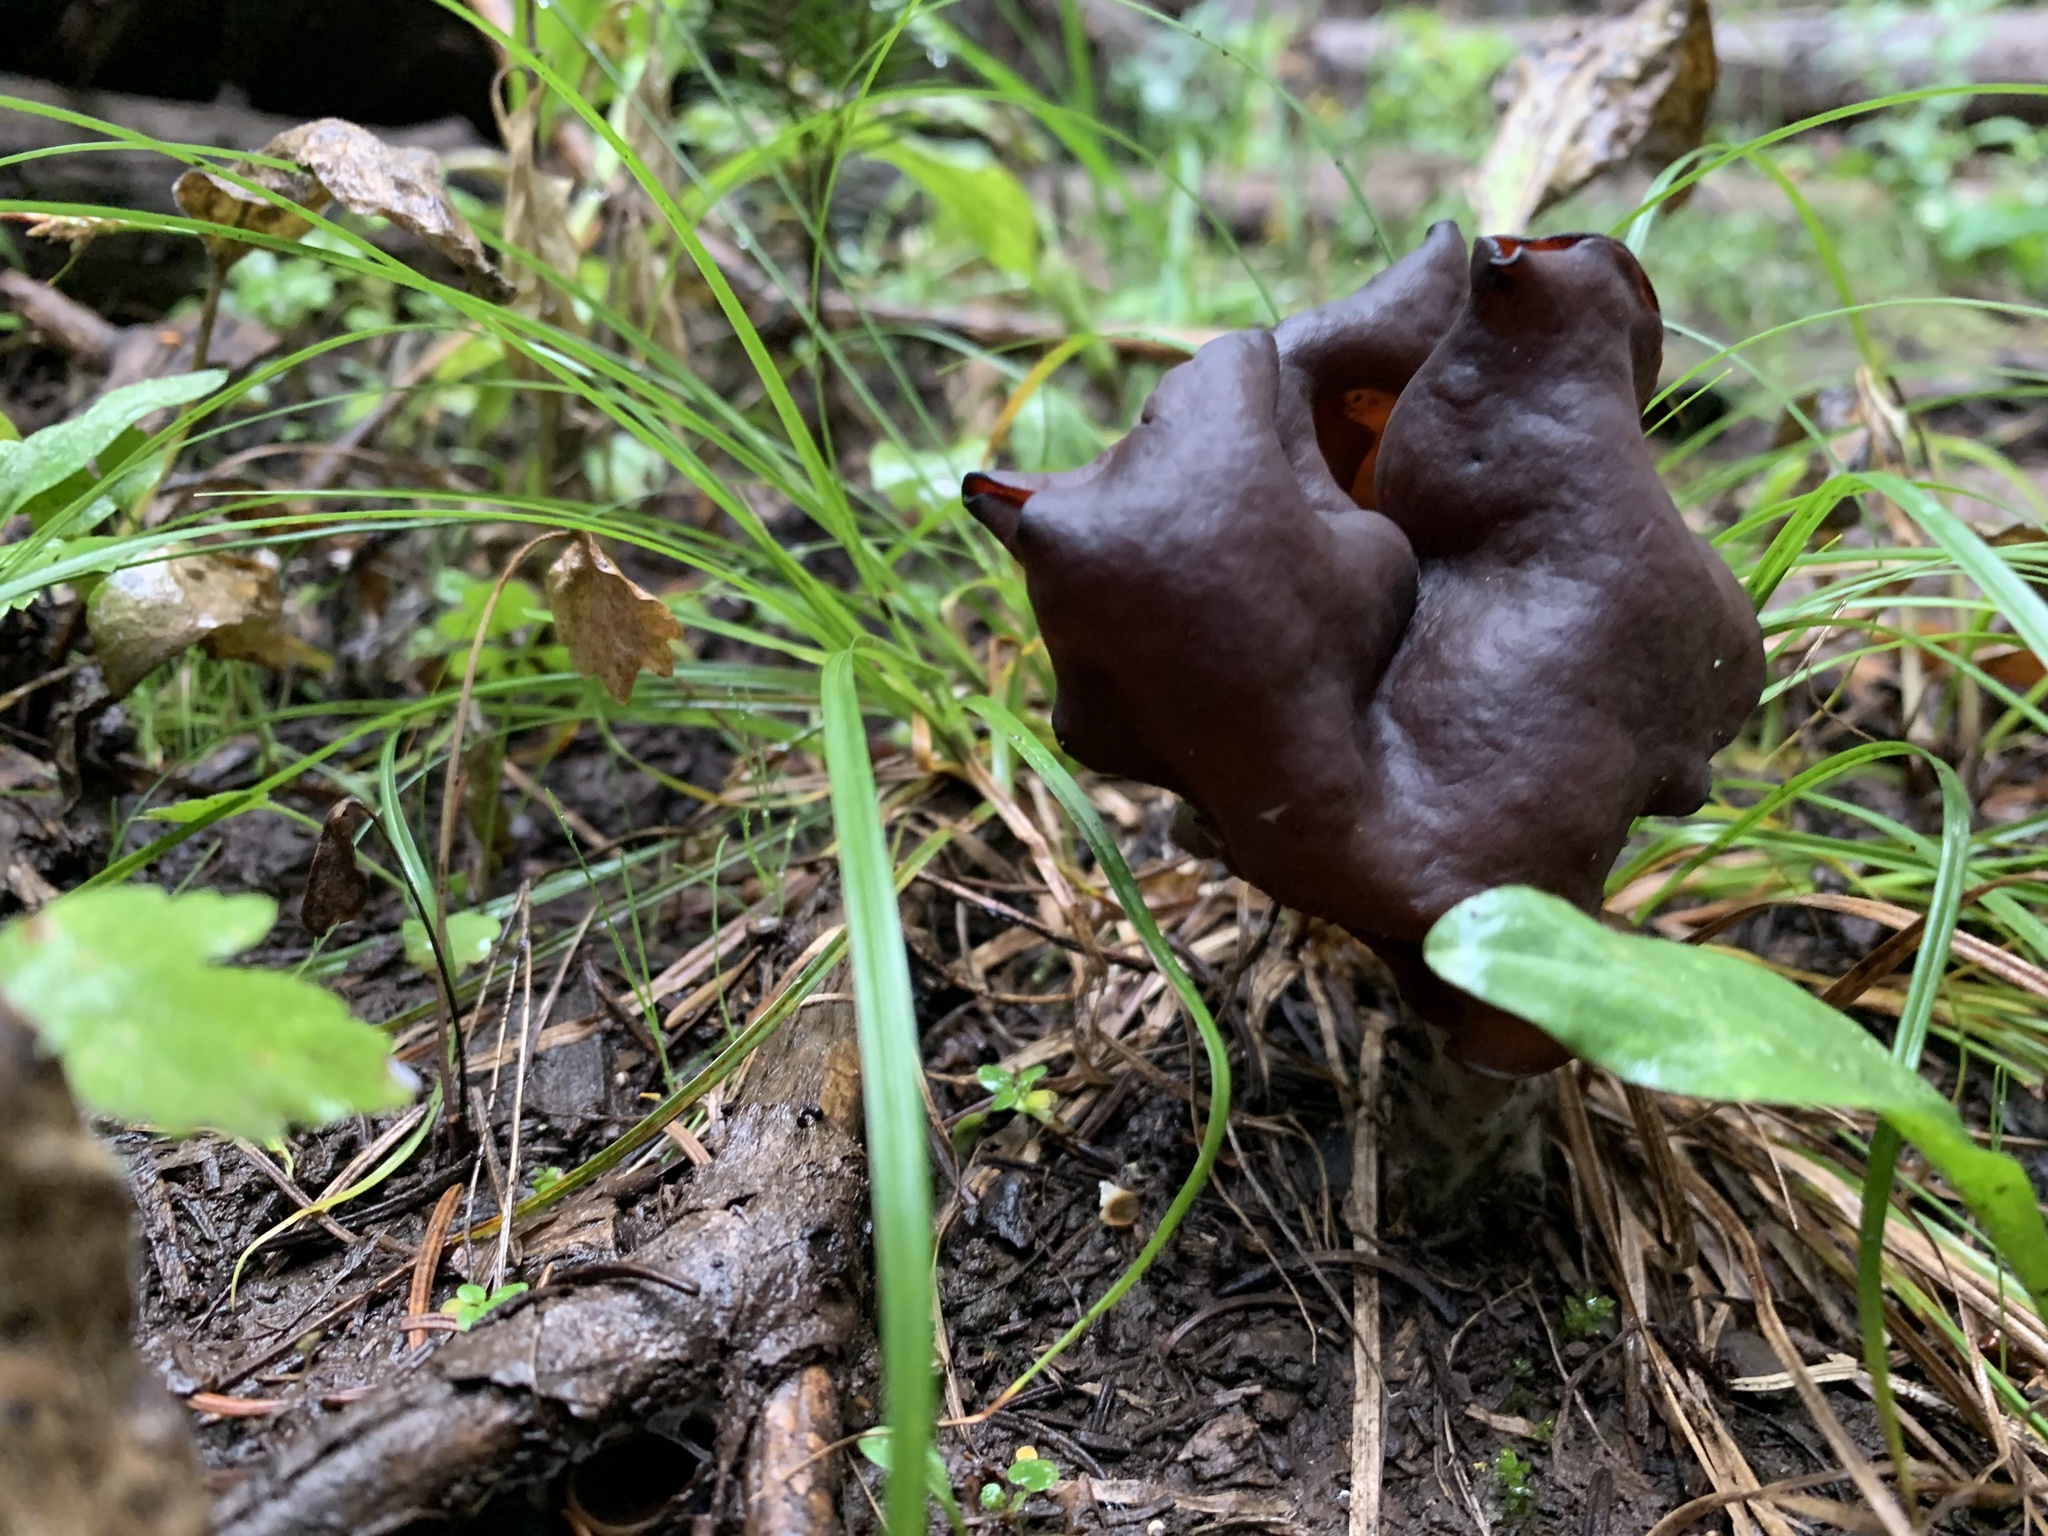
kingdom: Fungi
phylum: Ascomycota
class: Pezizomycetes
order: Pezizales
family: Discinaceae
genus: Gyromitra
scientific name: Gyromitra infula
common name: Pouched false morel
